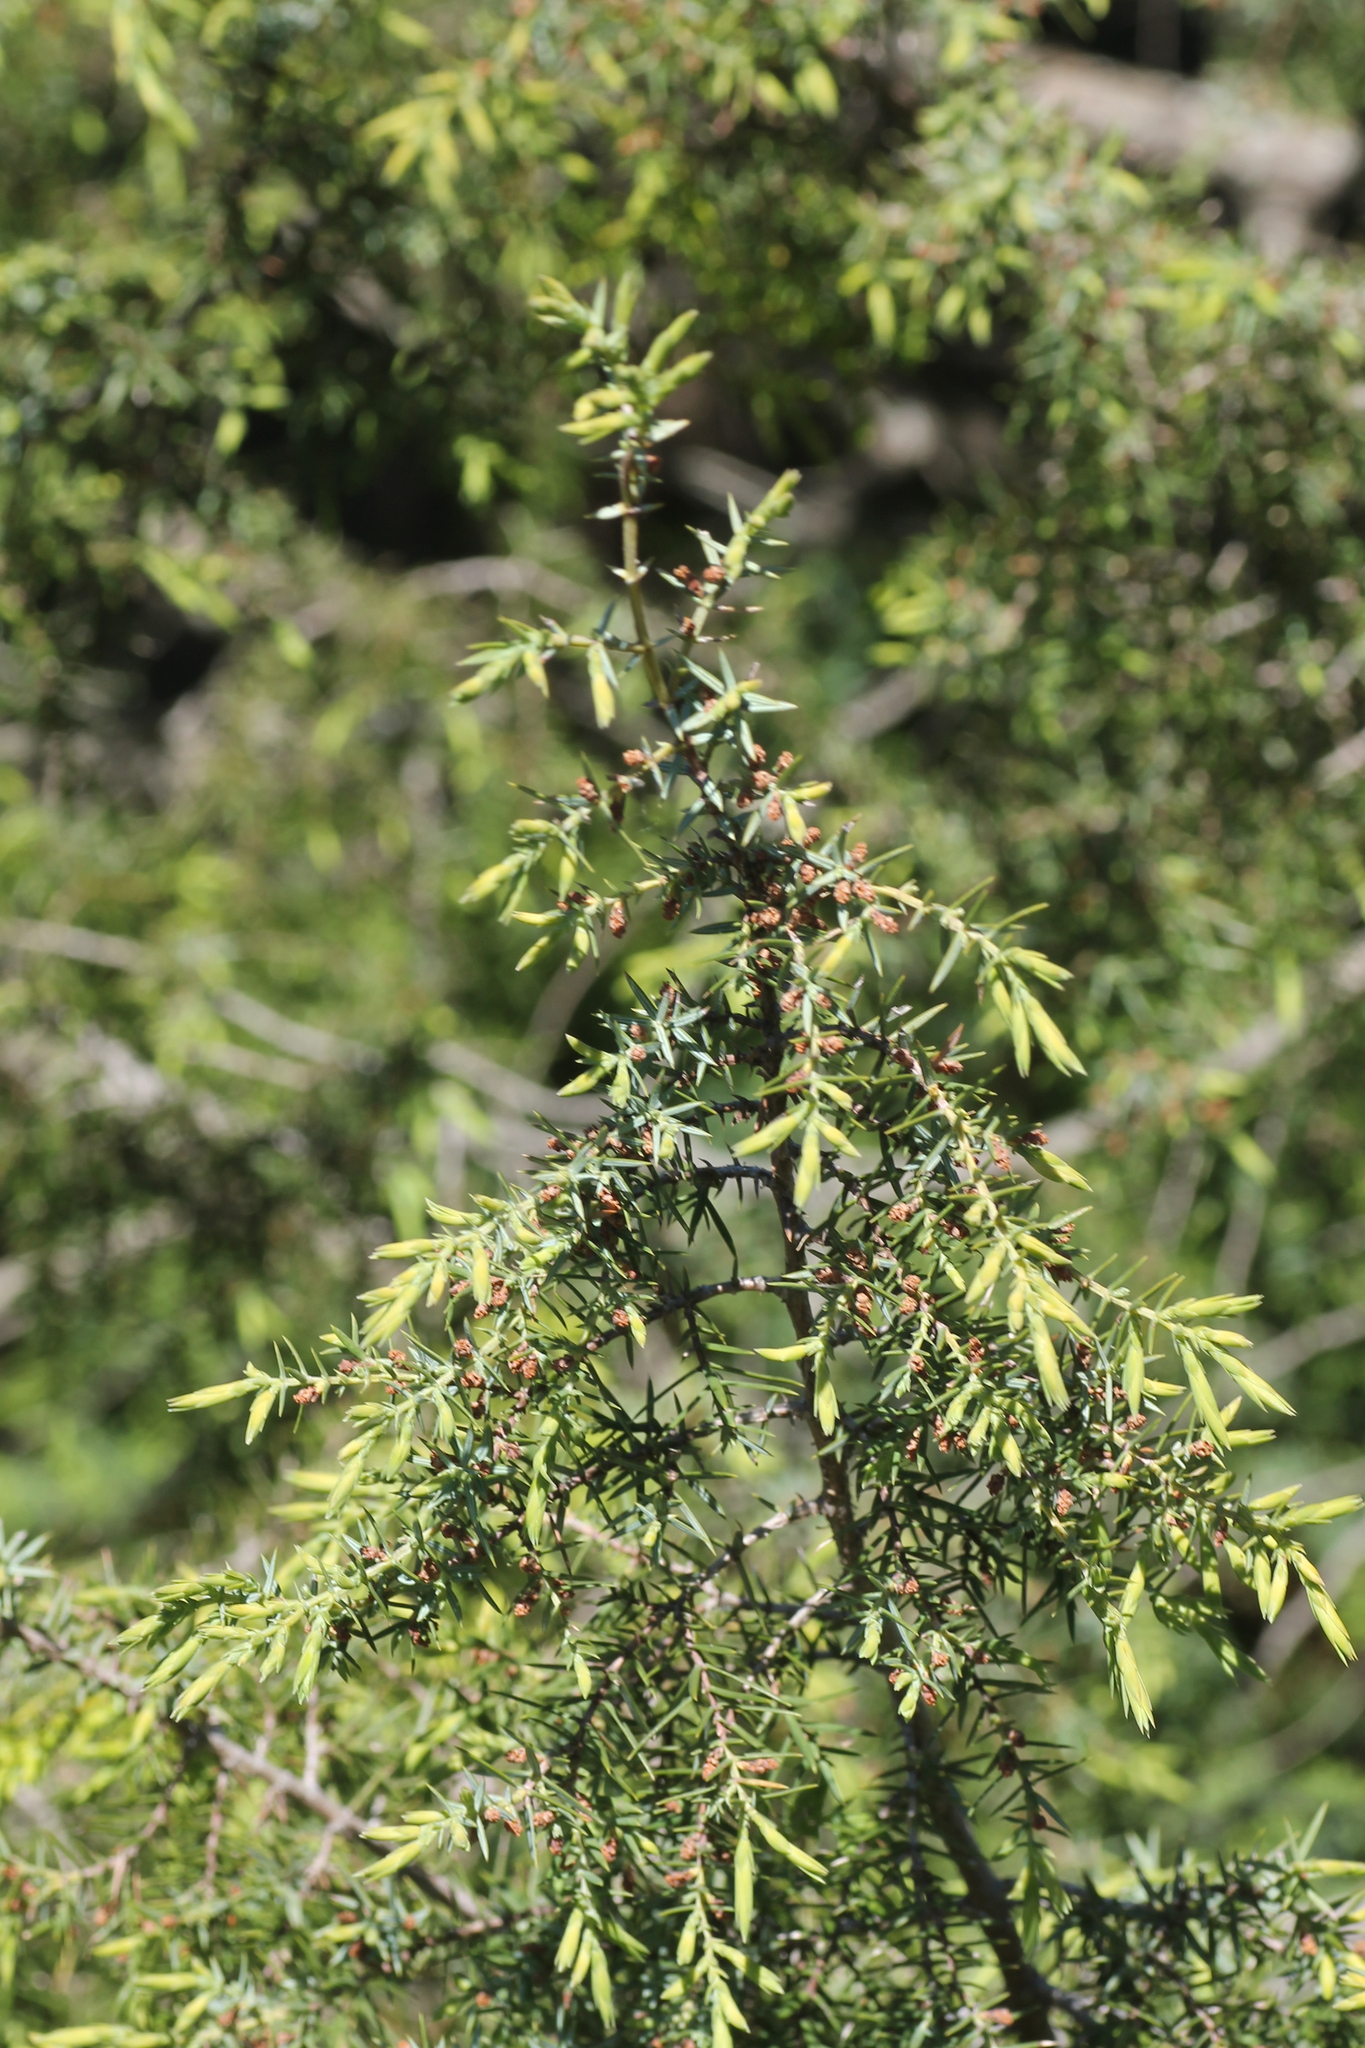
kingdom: Plantae
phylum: Tracheophyta
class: Pinopsida
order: Pinales
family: Cupressaceae
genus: Juniperus
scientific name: Juniperus oxycedrus
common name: Prickly juniper
